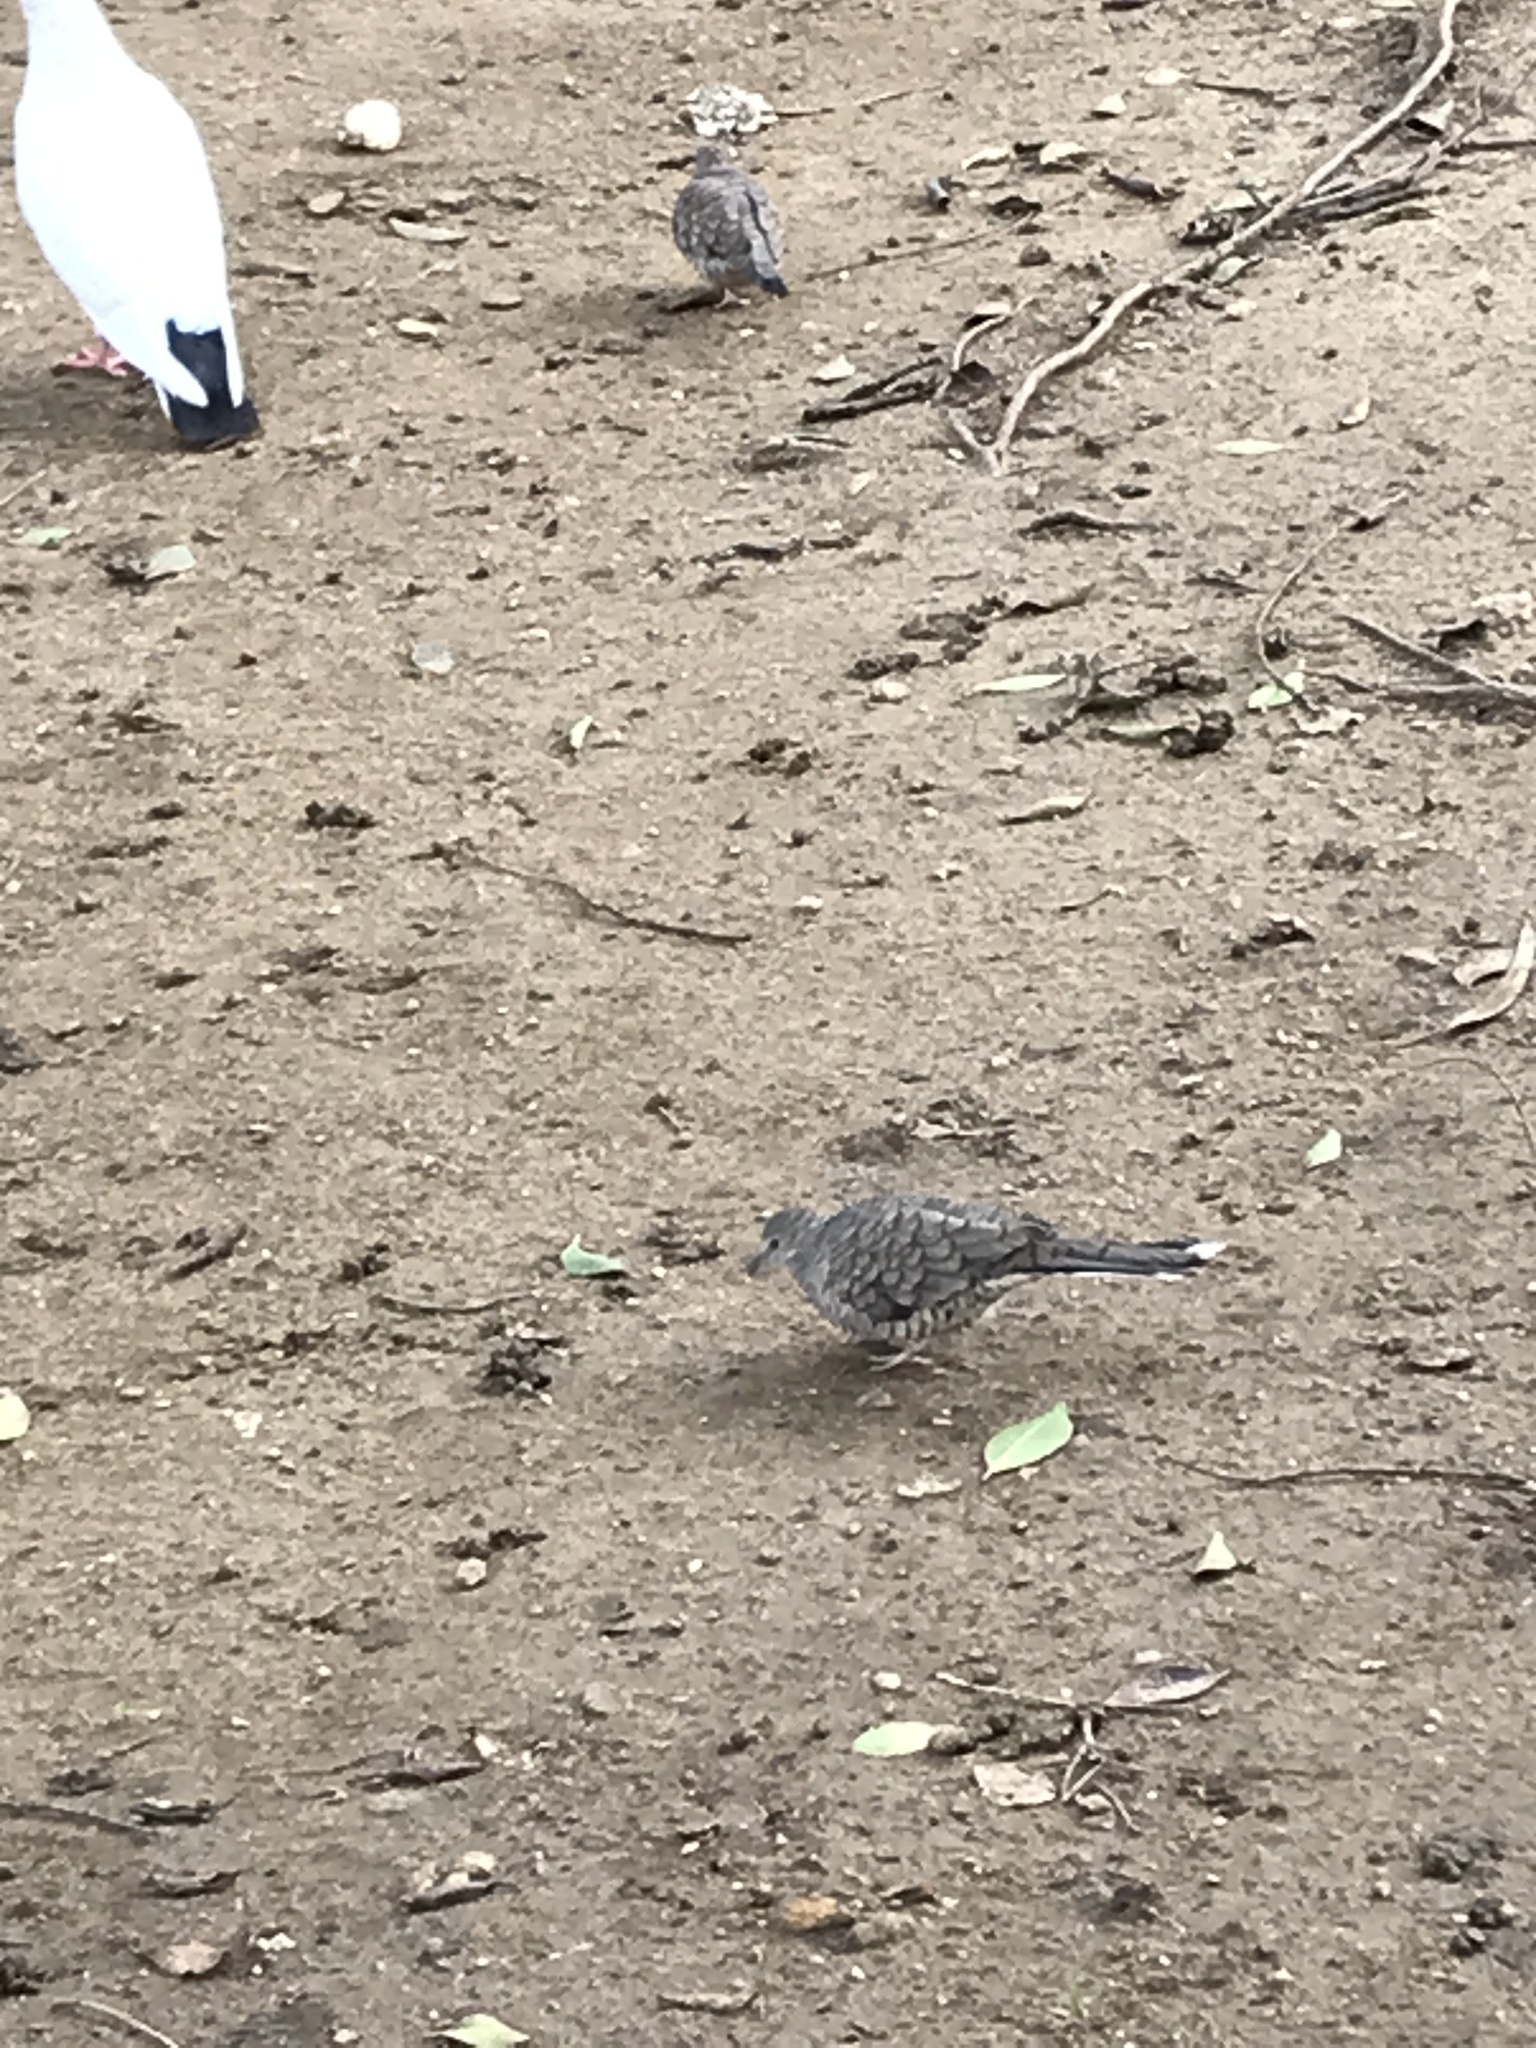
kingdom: Animalia
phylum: Chordata
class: Aves
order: Columbiformes
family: Columbidae
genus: Columbina
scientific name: Columbina inca
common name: Inca dove
